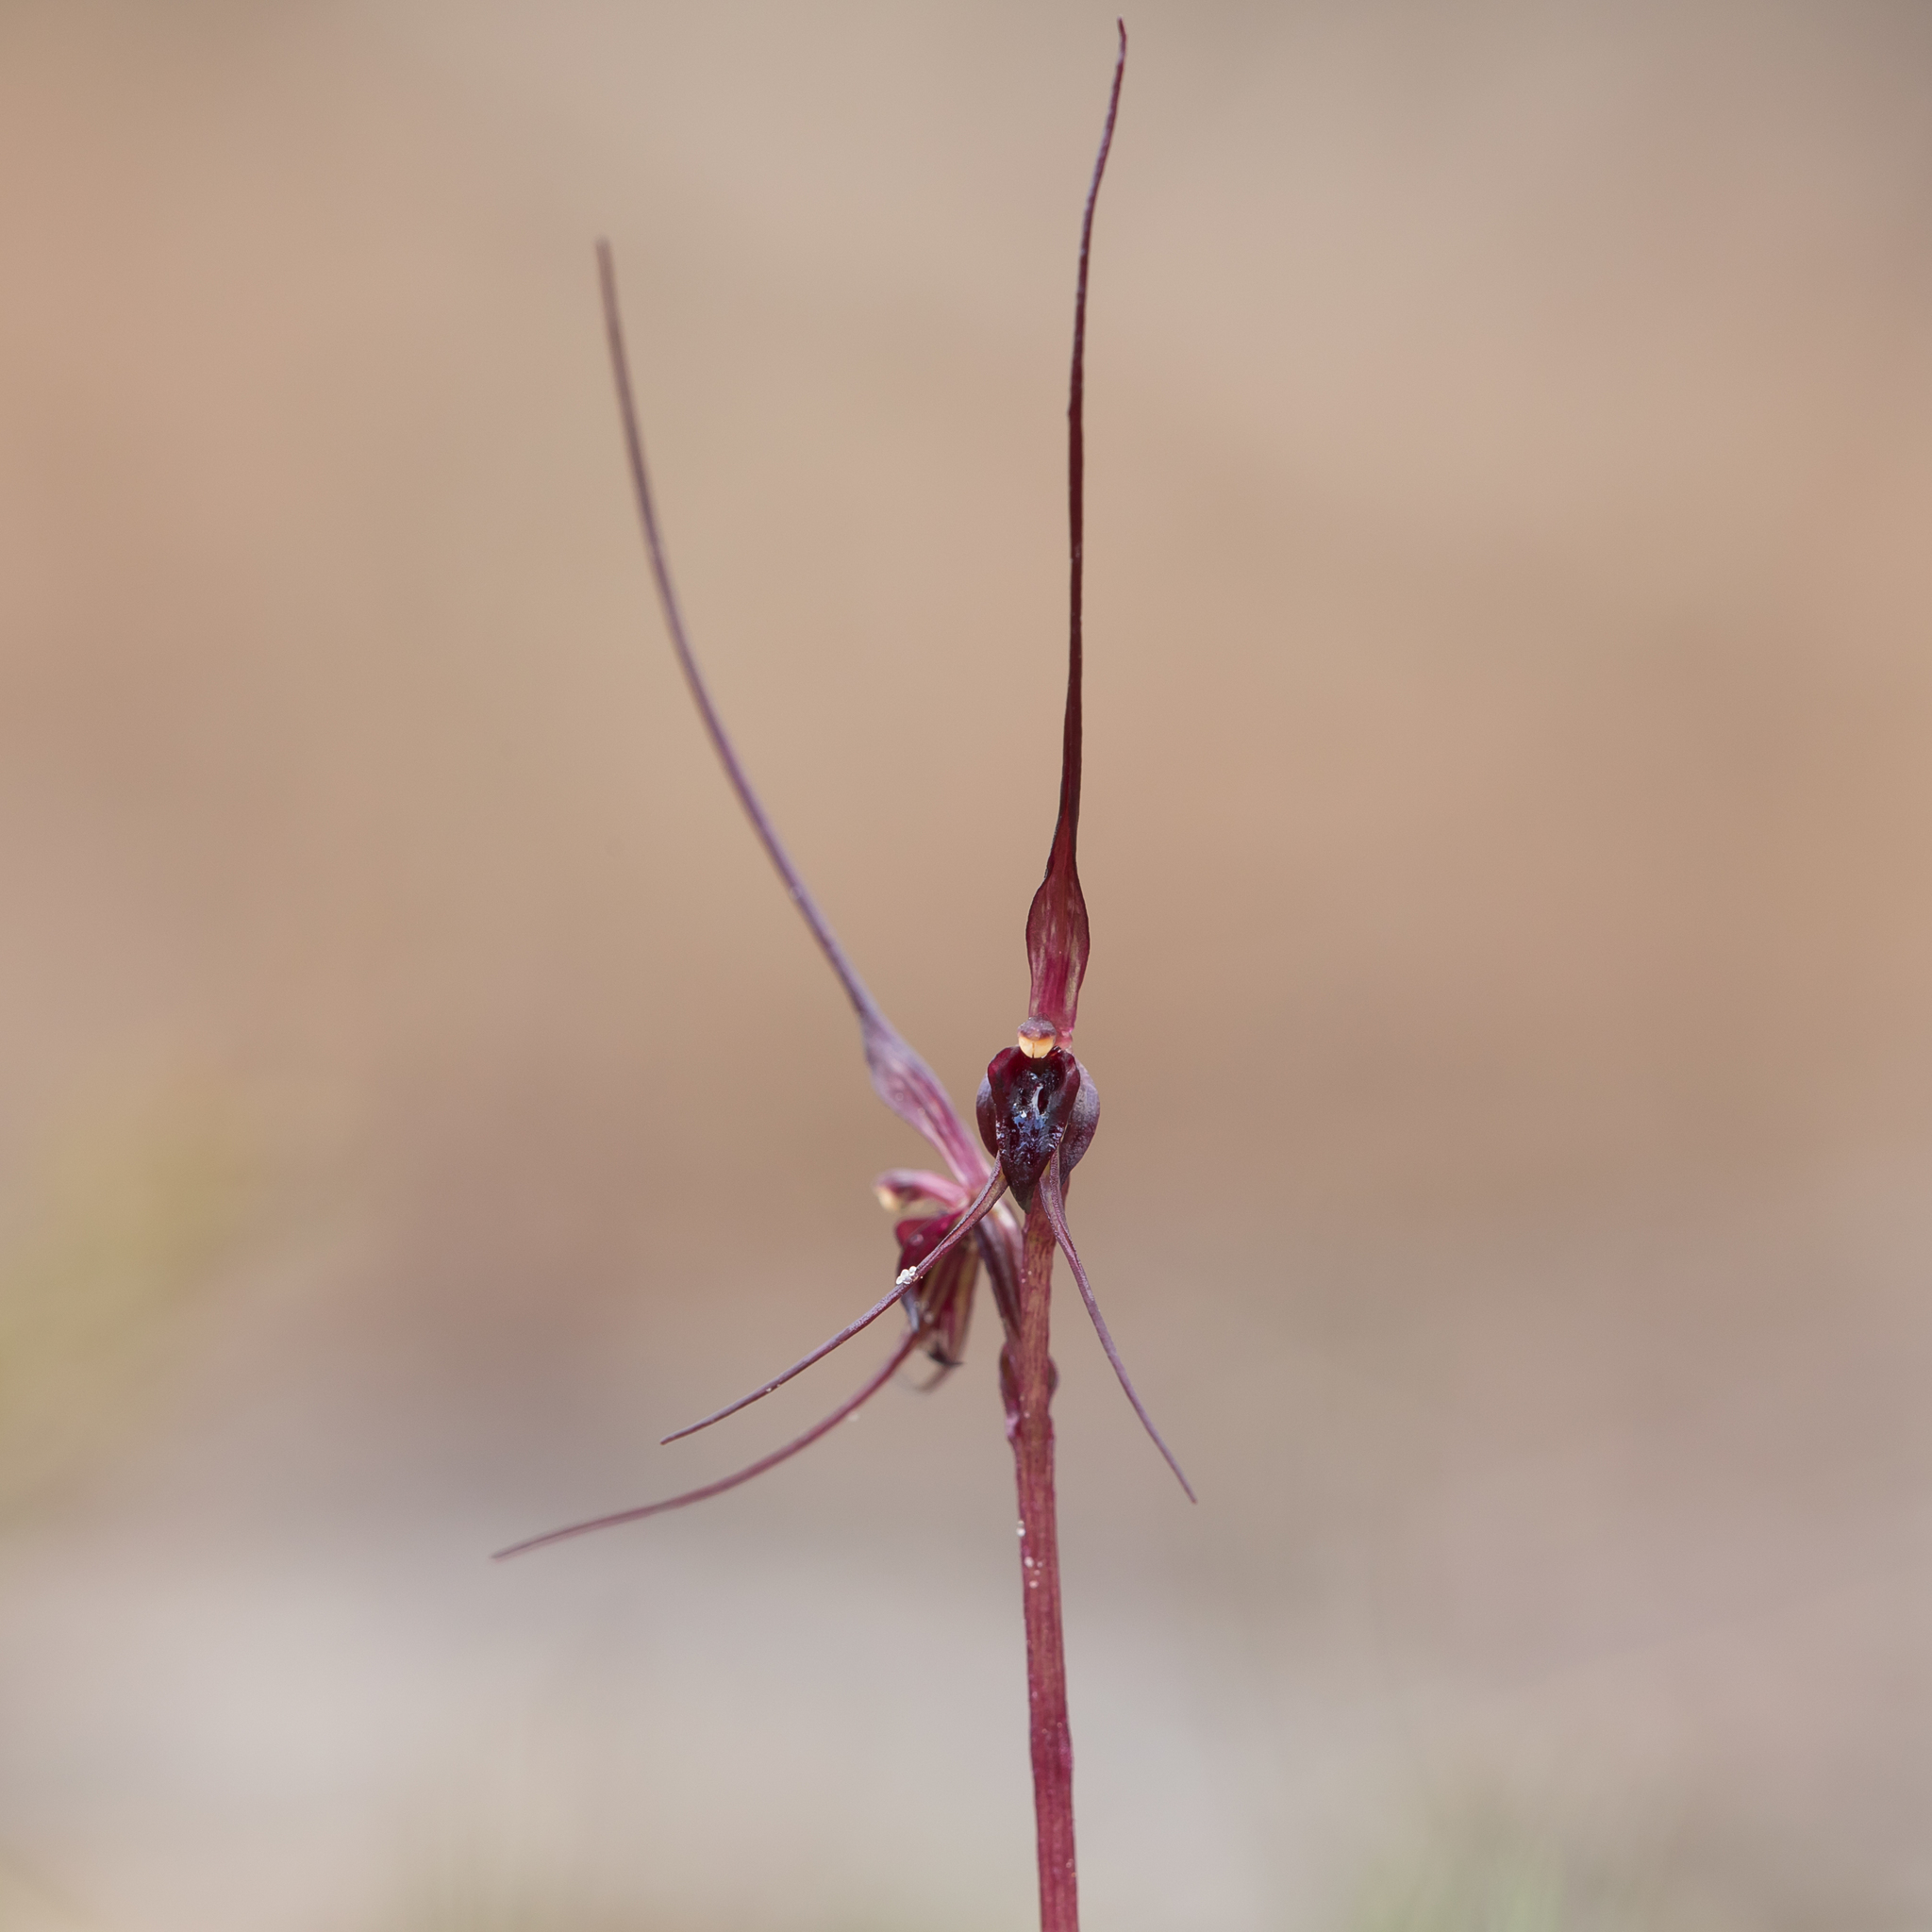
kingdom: Plantae
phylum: Tracheophyta
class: Liliopsida
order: Asparagales
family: Orchidaceae
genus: Acianthus
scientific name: Acianthus caudatus
